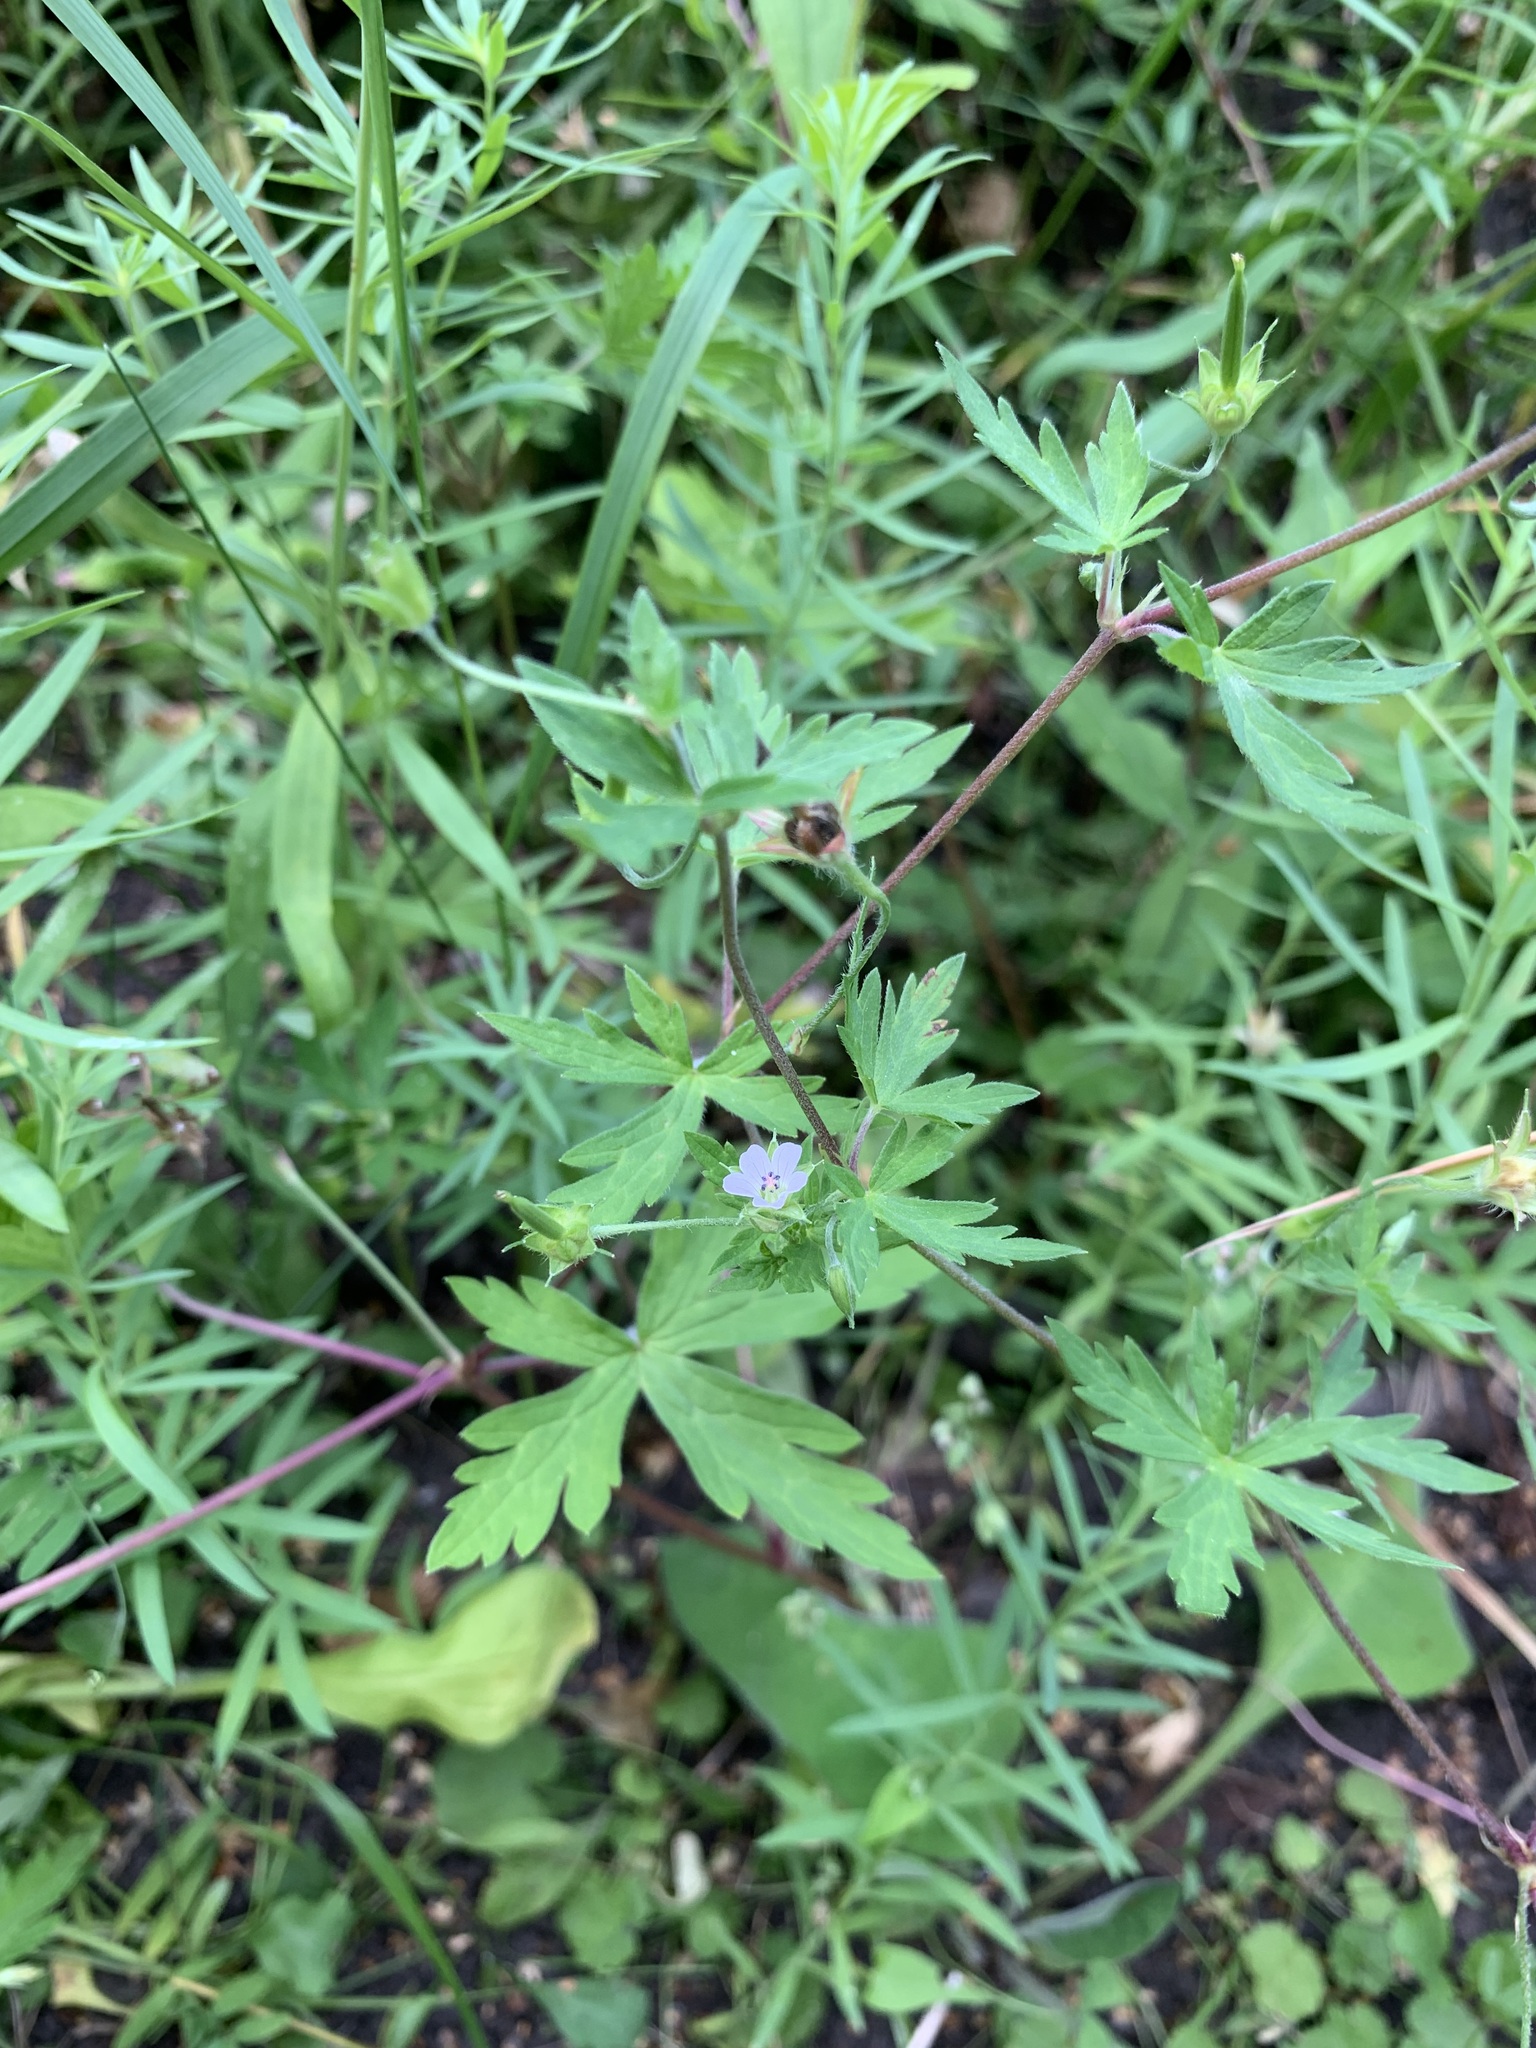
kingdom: Plantae
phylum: Tracheophyta
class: Magnoliopsida
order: Geraniales
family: Geraniaceae
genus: Geranium
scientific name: Geranium sibiricum
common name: Siberian crane's-bill
